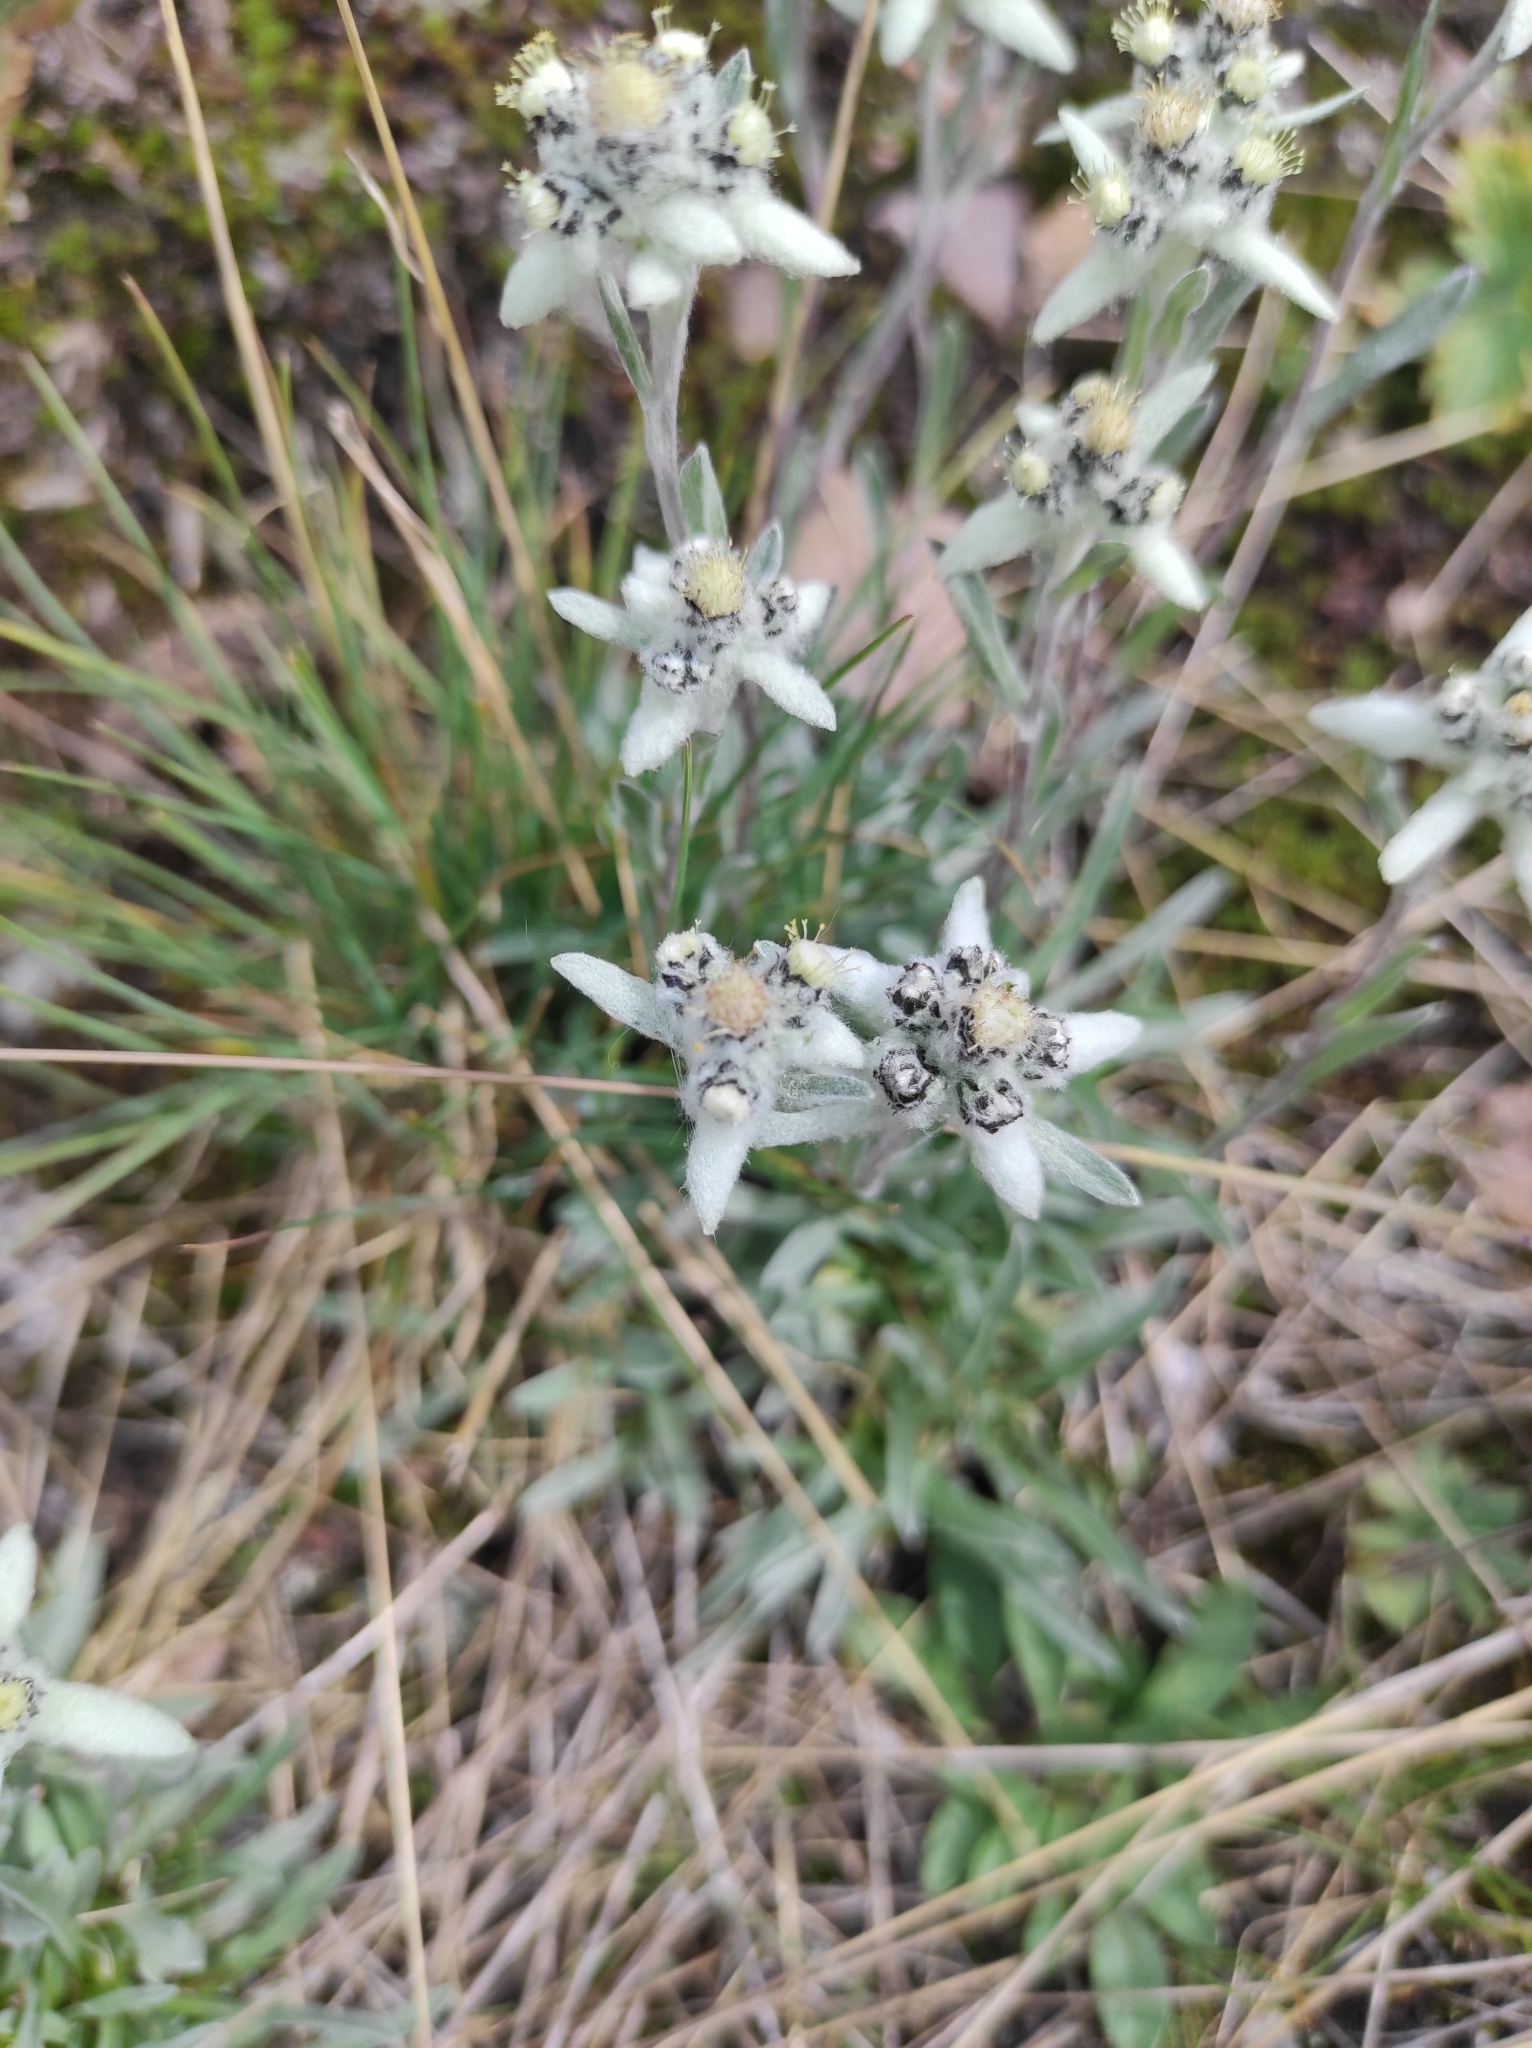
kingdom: Plantae
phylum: Tracheophyta
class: Magnoliopsida
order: Asterales
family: Asteraceae
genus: Leontopodium
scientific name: Leontopodium campestre
